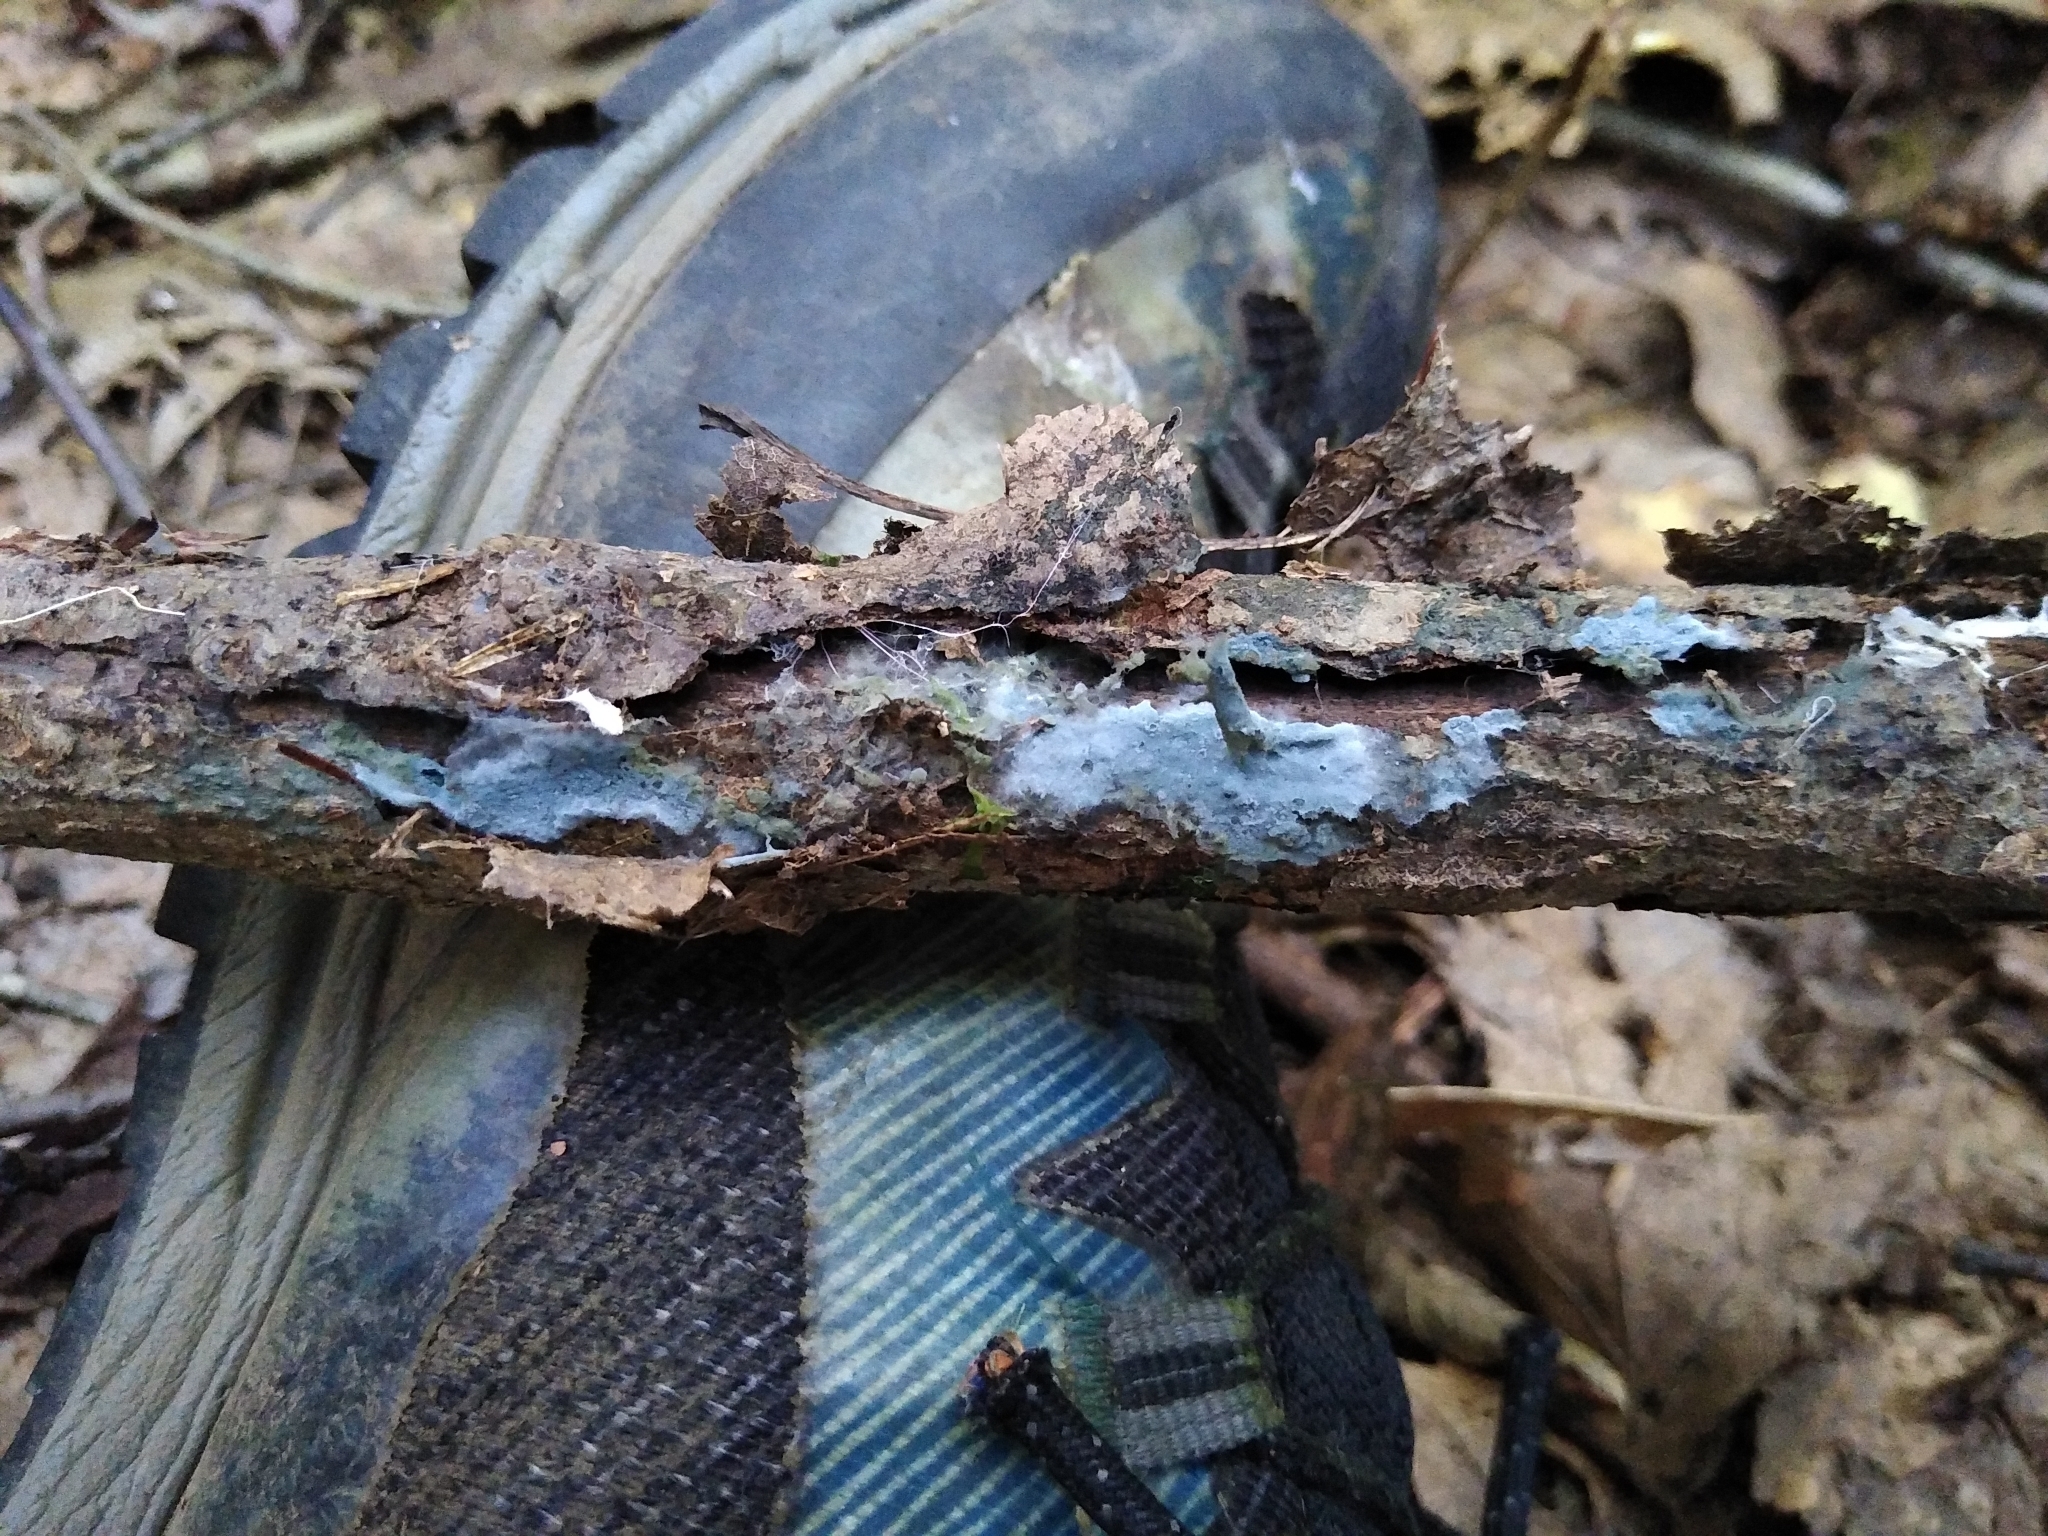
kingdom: Fungi
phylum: Basidiomycota
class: Agaricomycetes
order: Atheliales
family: Atheliaceae
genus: Byssocorticium
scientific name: Byssocorticium atrovirens
